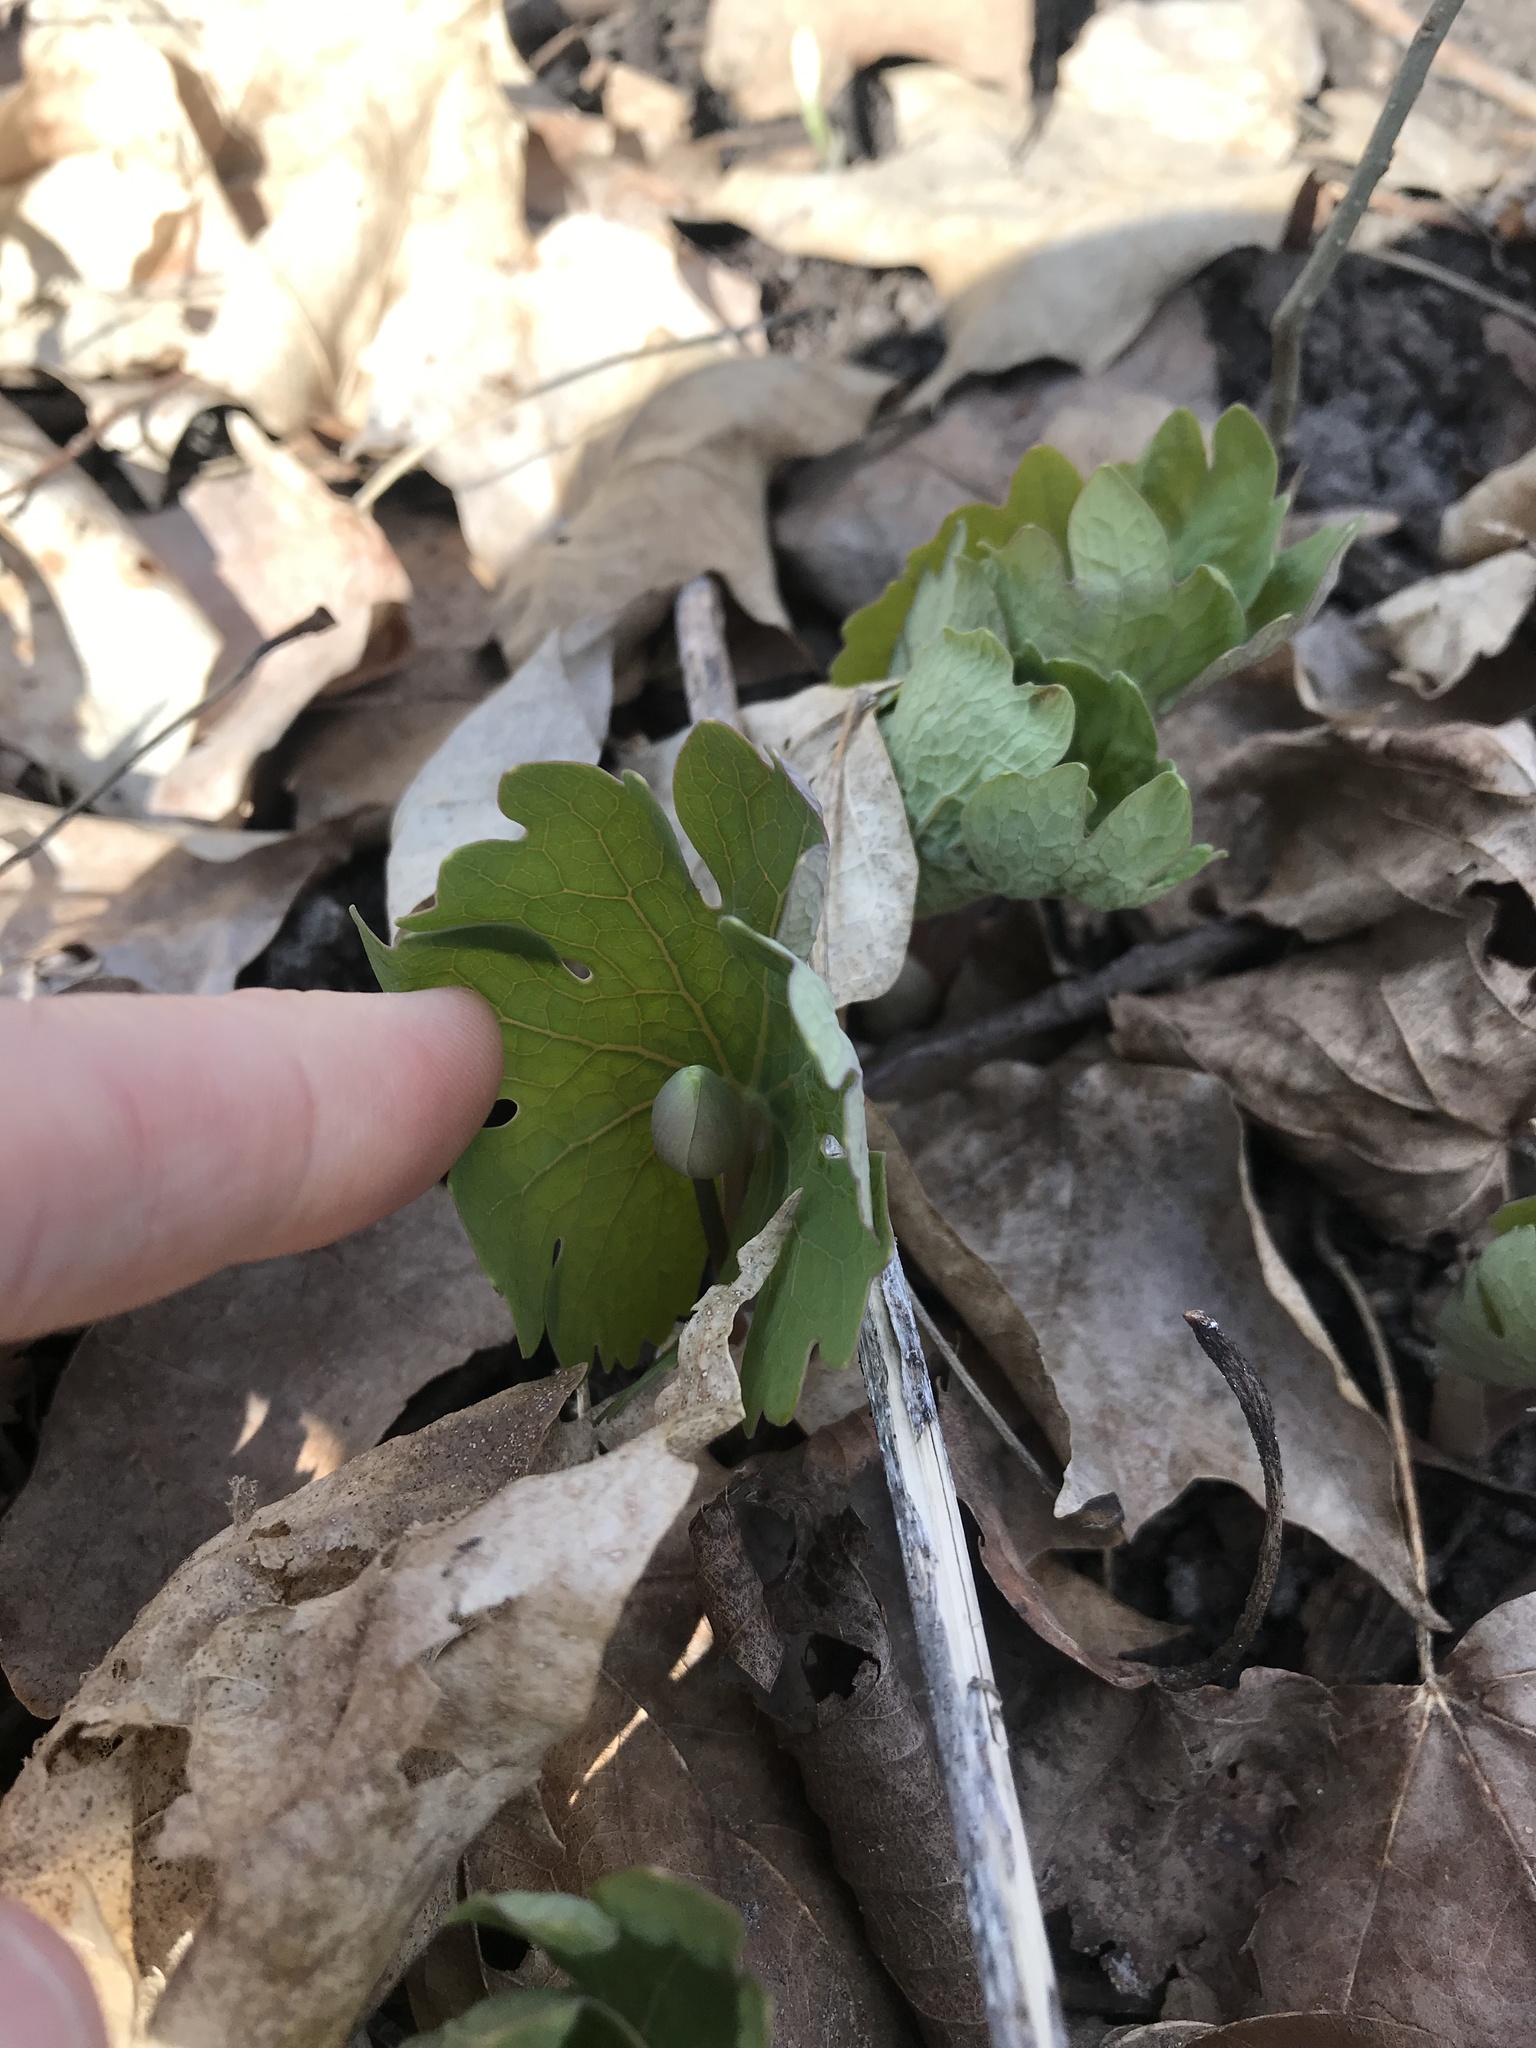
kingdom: Plantae
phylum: Tracheophyta
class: Magnoliopsida
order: Ranunculales
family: Papaveraceae
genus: Sanguinaria
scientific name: Sanguinaria canadensis
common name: Bloodroot
